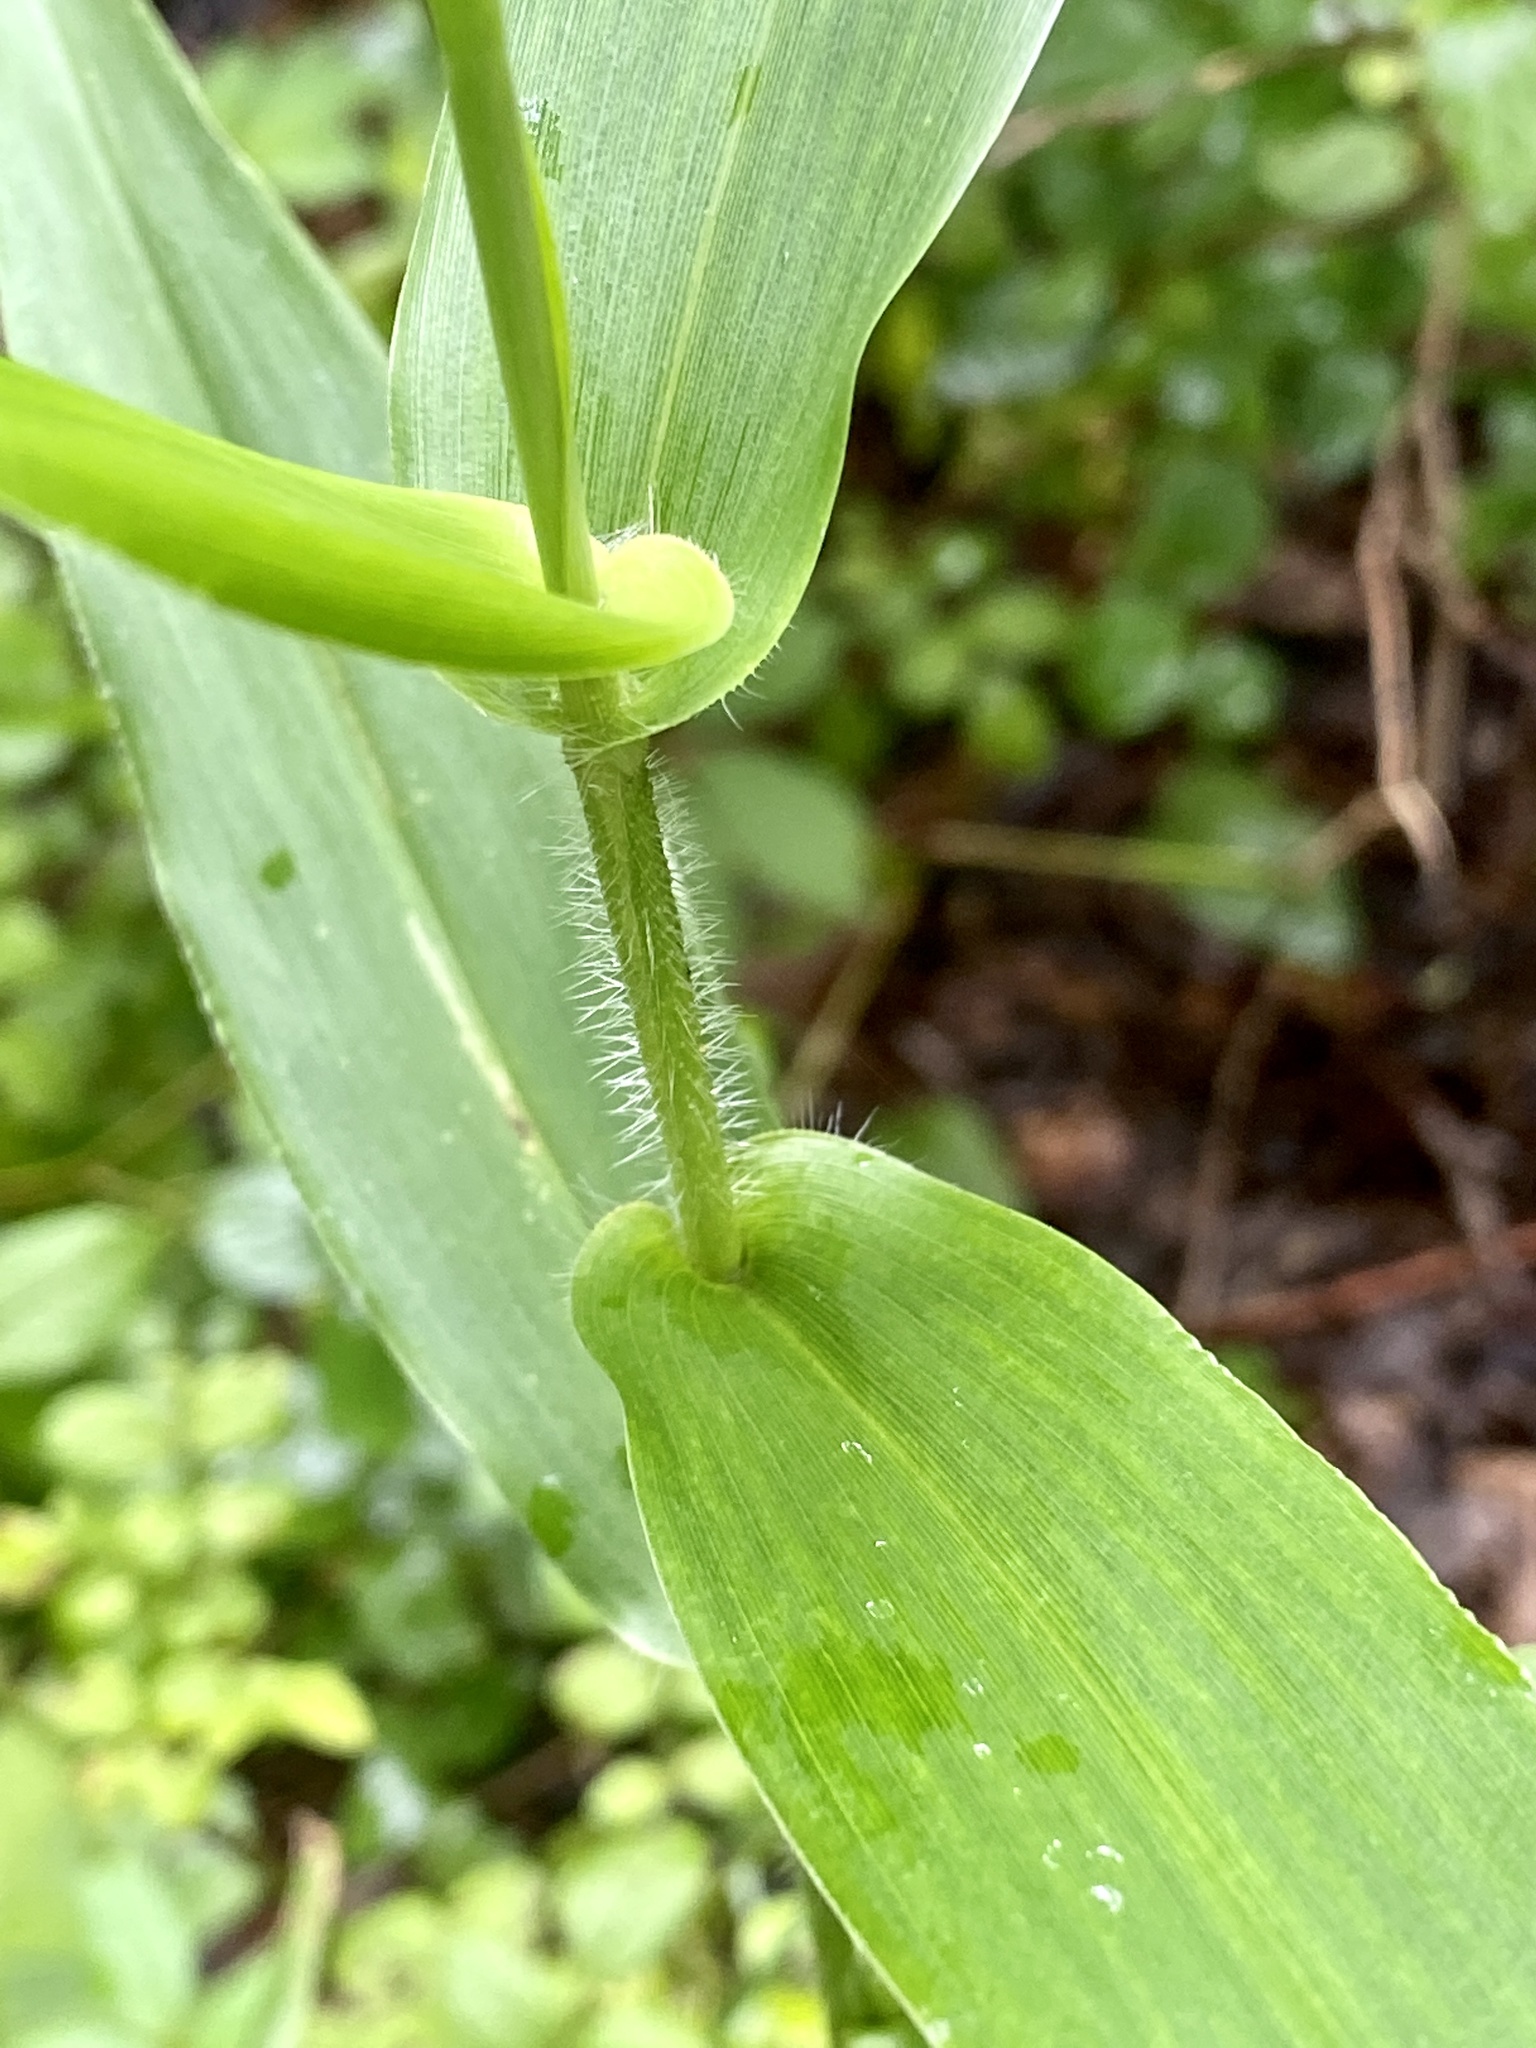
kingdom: Plantae
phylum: Tracheophyta
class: Liliopsida
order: Poales
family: Poaceae
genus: Dichanthelium
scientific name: Dichanthelium clandestinum
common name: Deer-tongue grass
